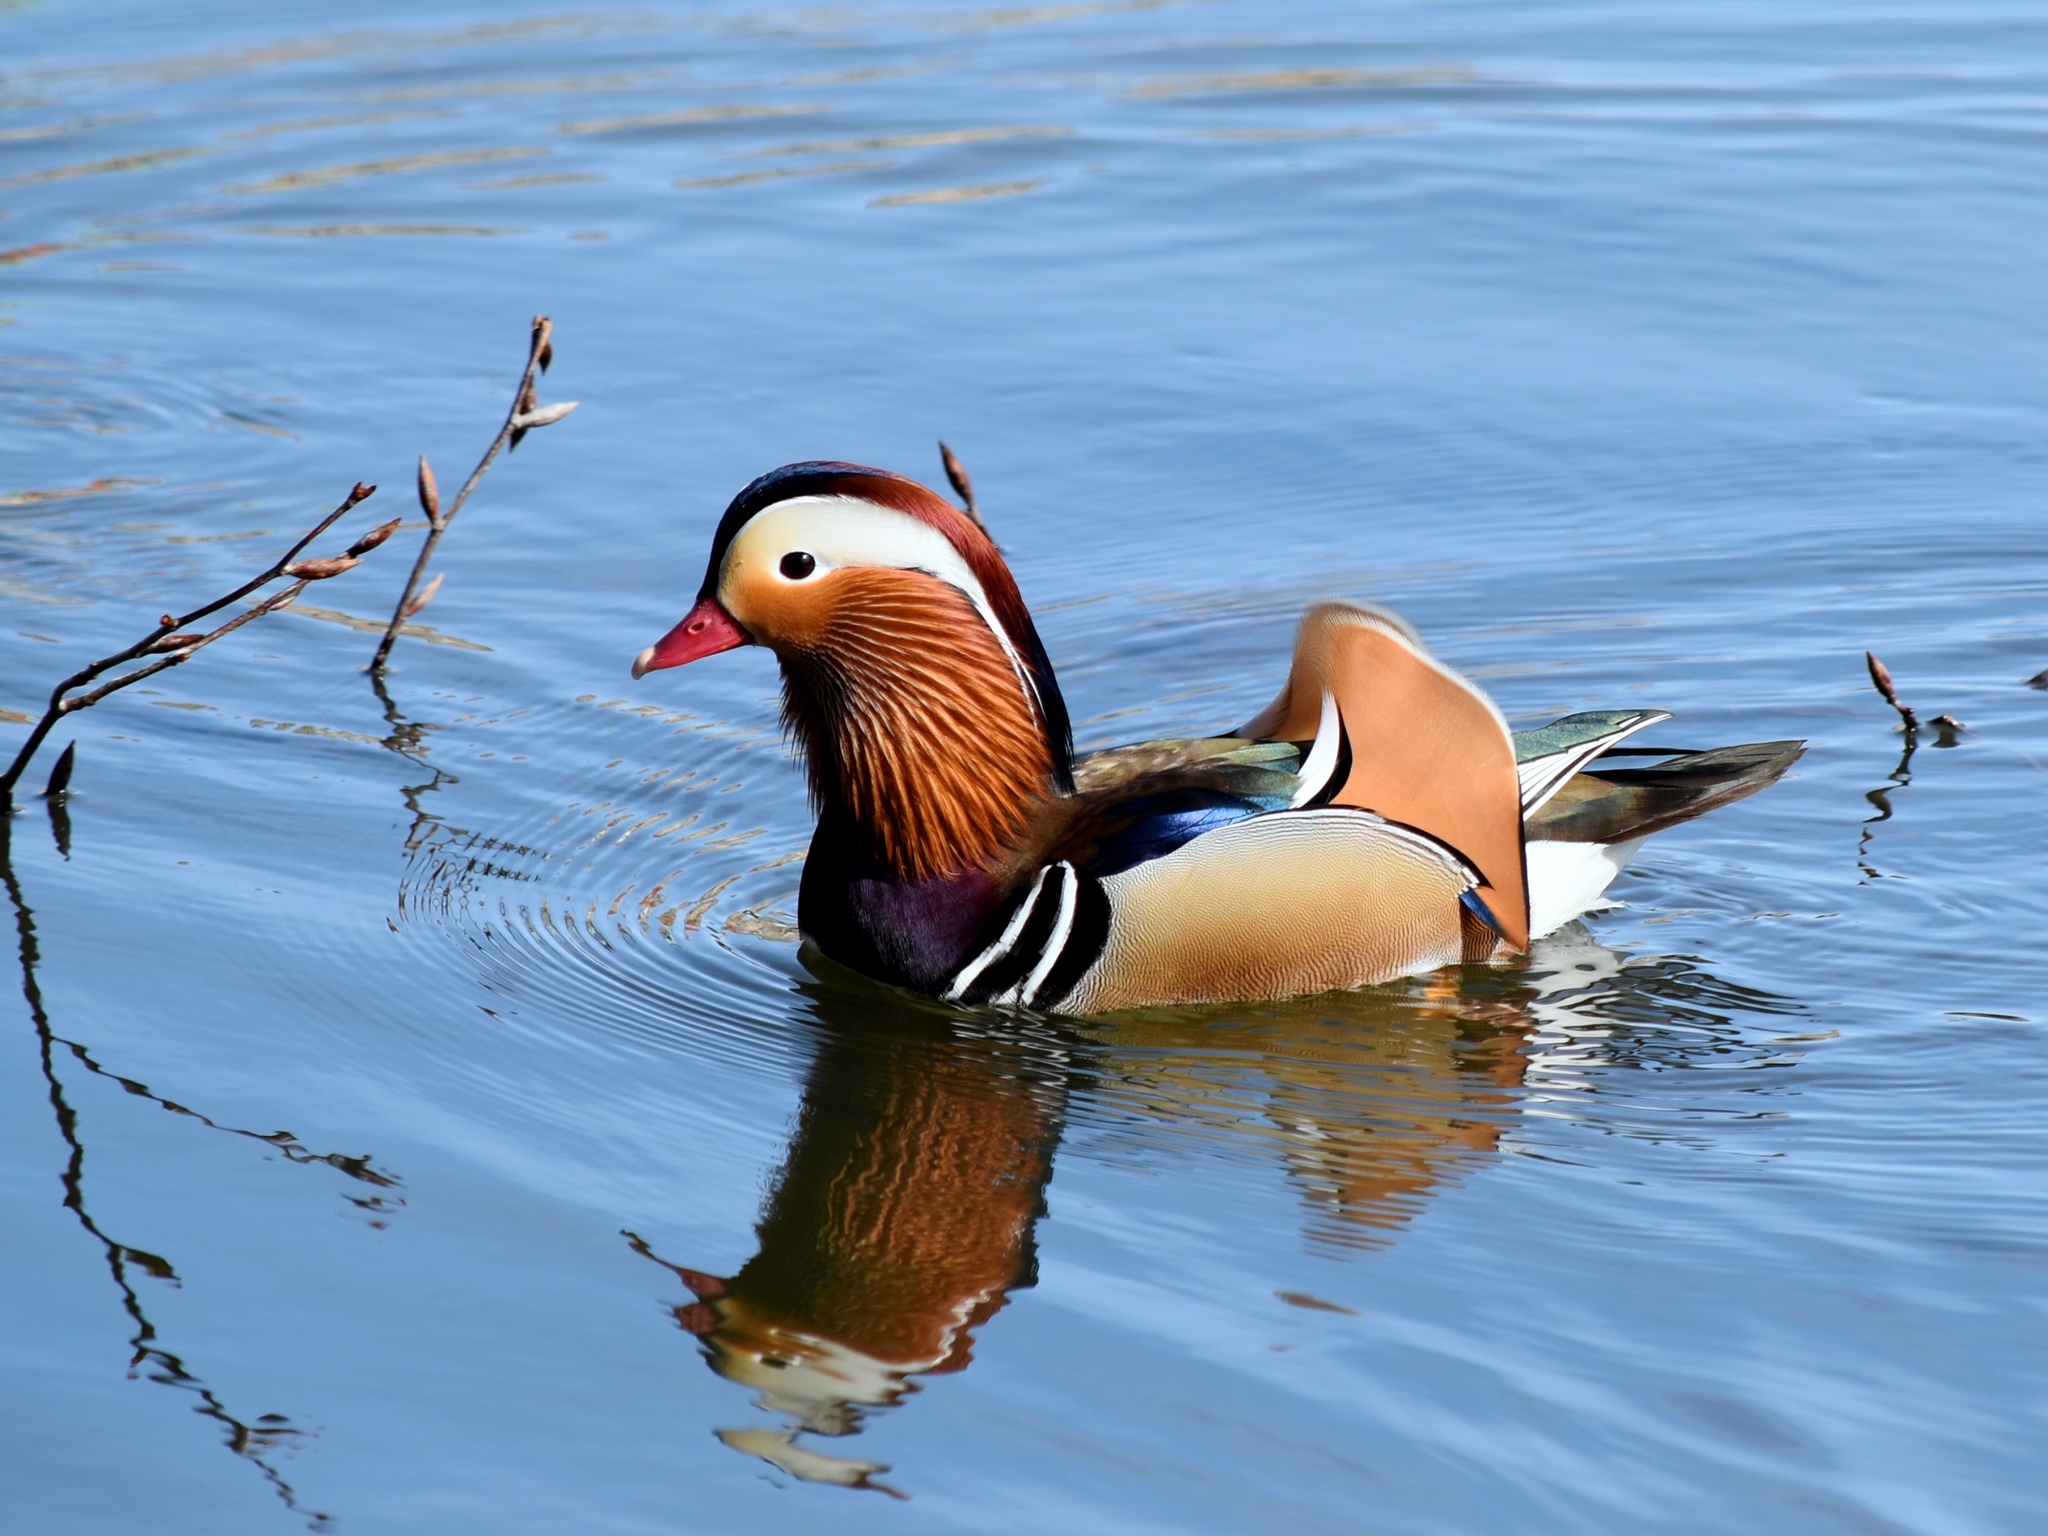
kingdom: Animalia
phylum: Chordata
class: Aves
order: Anseriformes
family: Anatidae
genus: Aix
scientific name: Aix galericulata
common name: Mandarin duck
